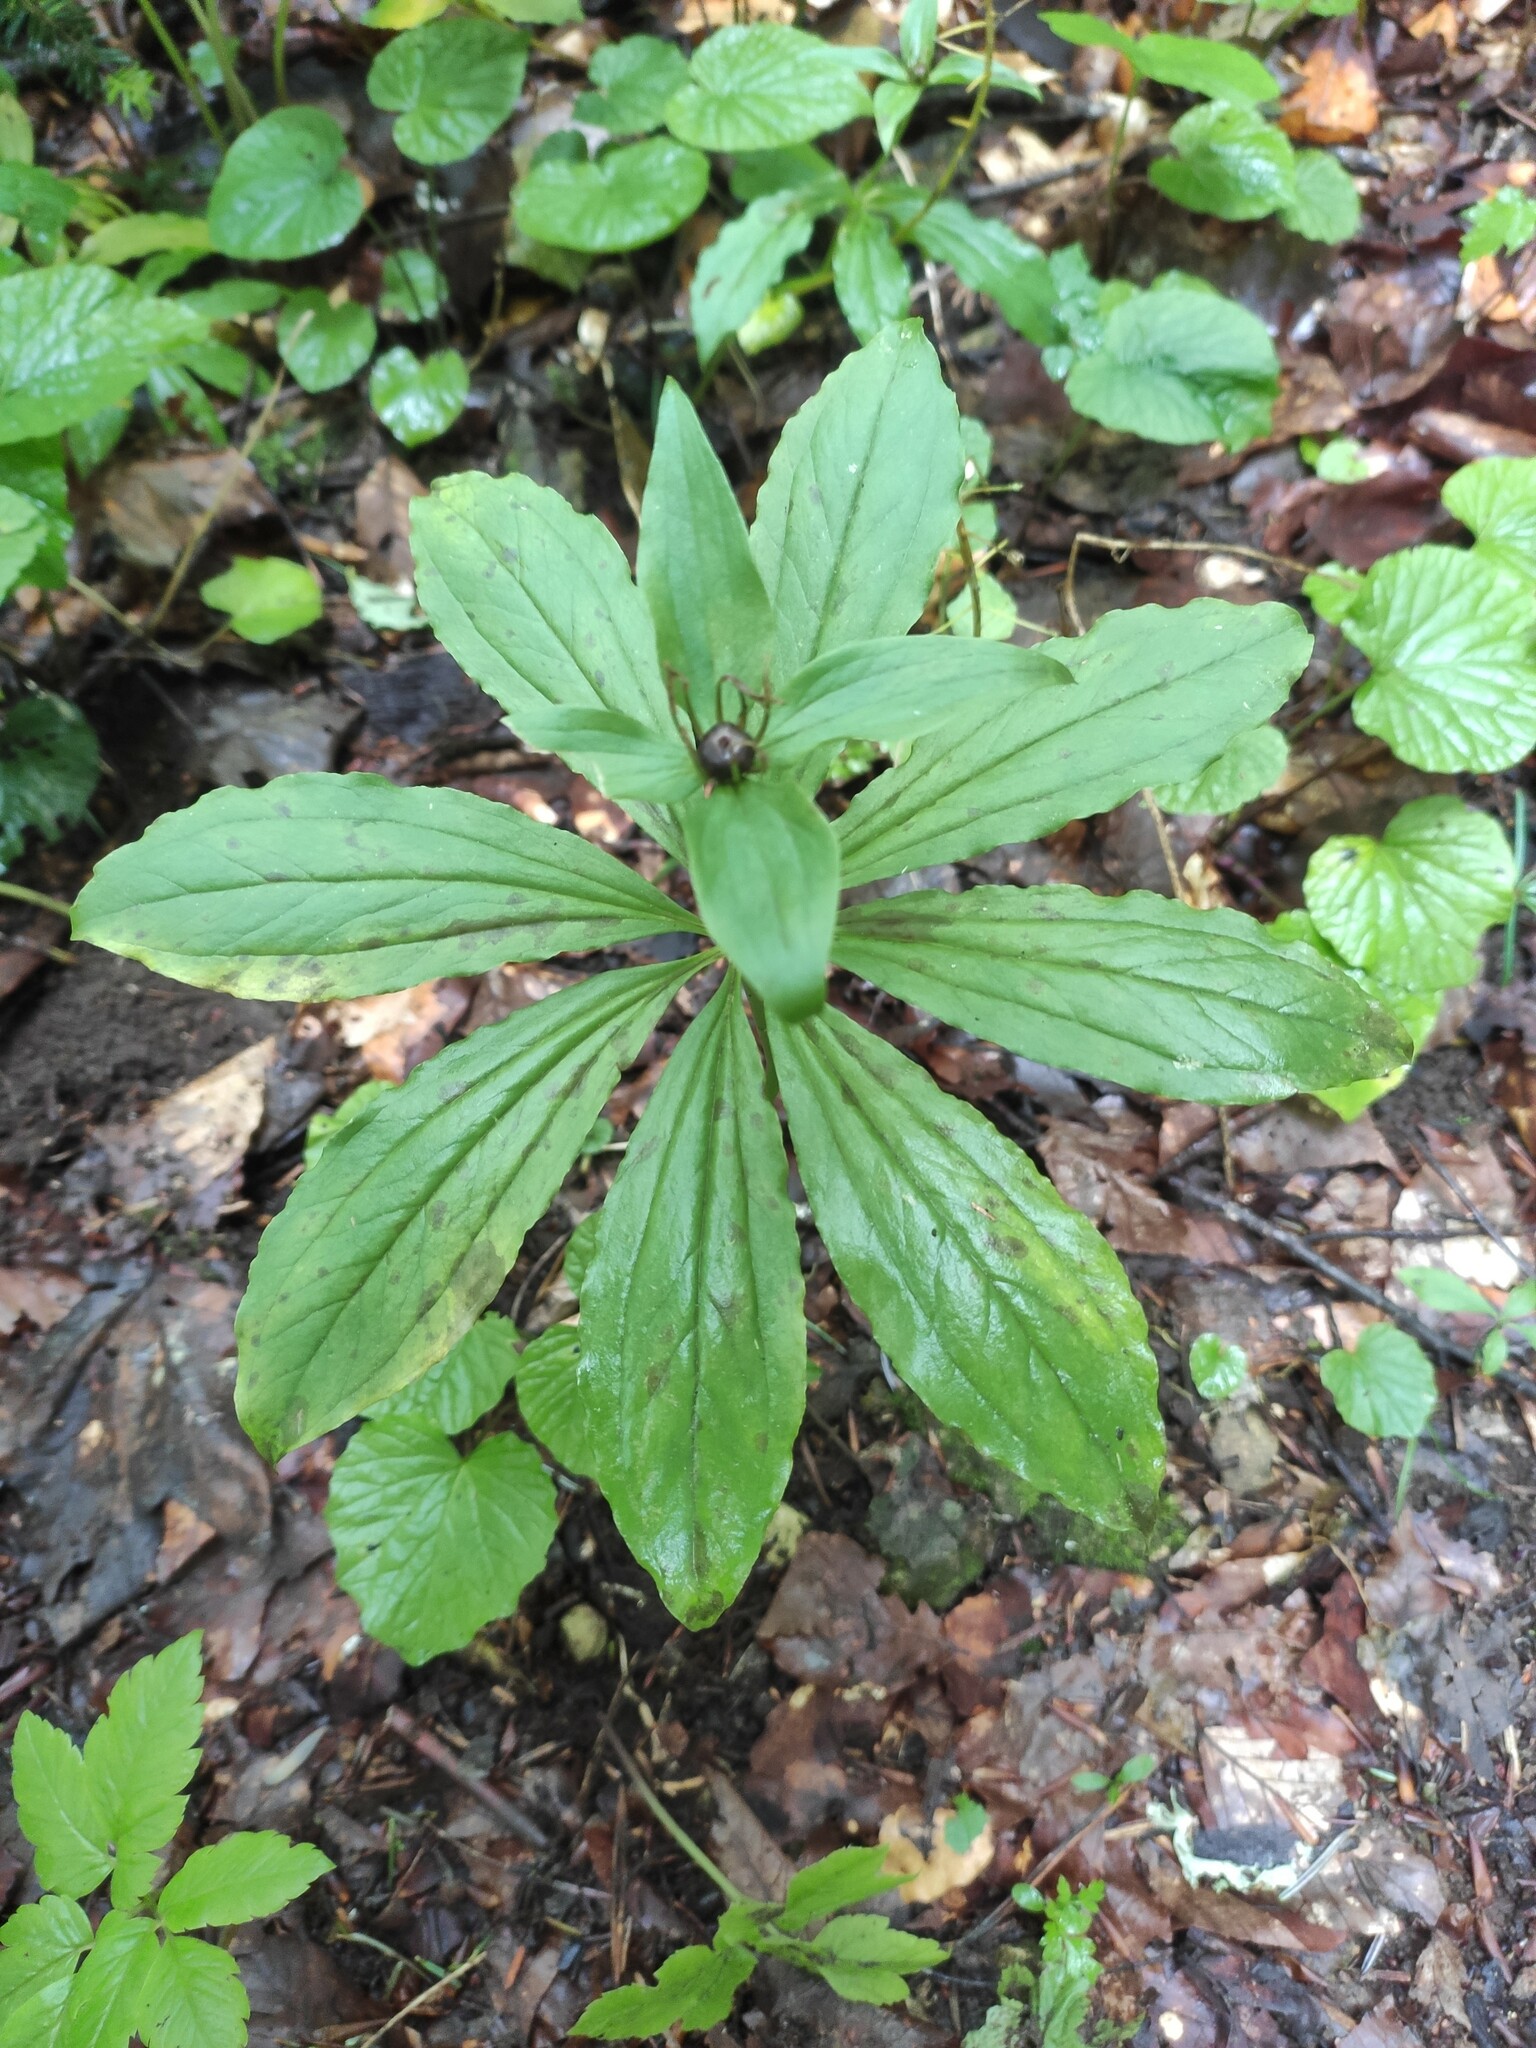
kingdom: Plantae
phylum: Tracheophyta
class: Liliopsida
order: Liliales
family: Melanthiaceae
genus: Paris
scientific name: Paris incompleta
